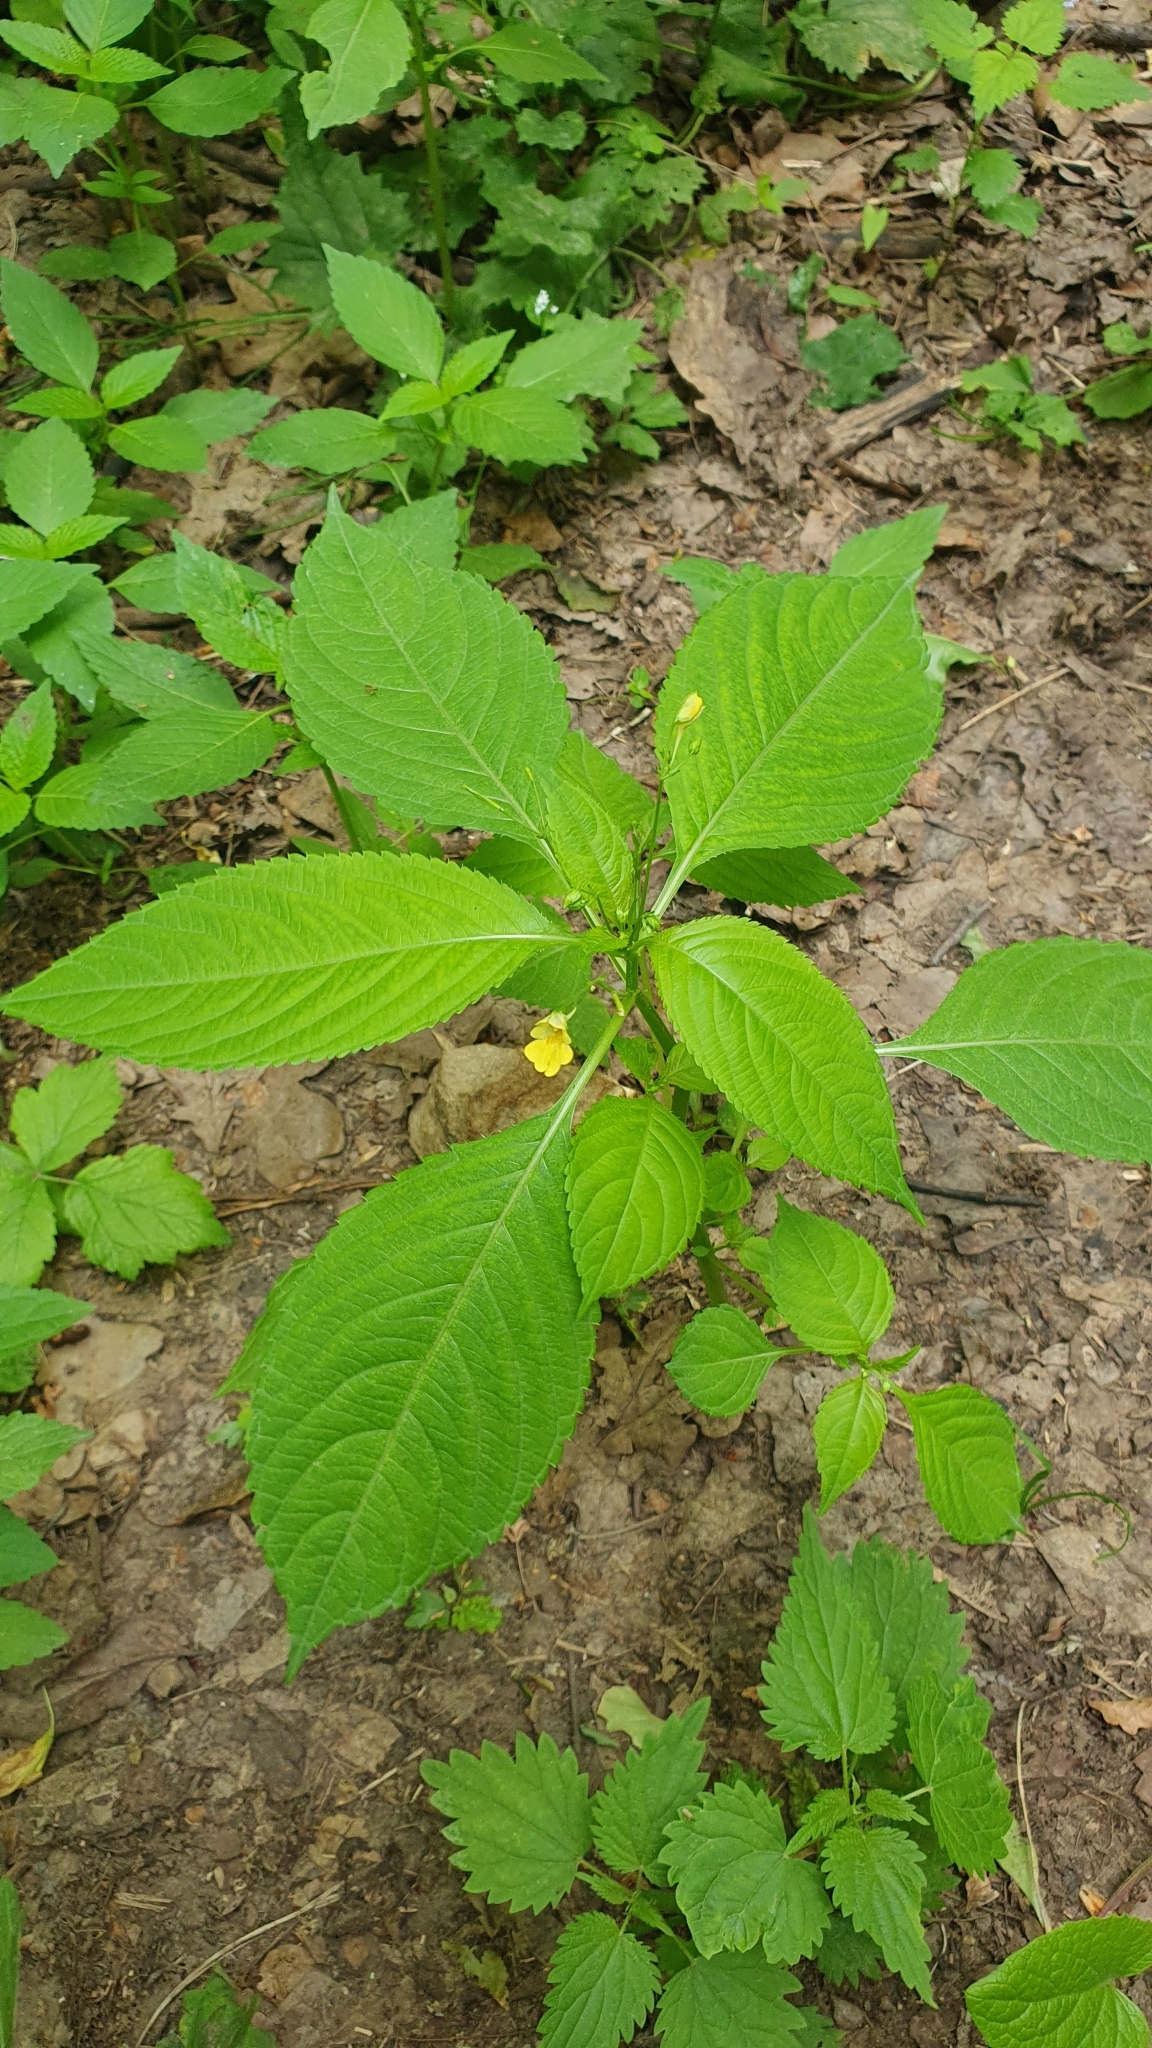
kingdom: Plantae
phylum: Tracheophyta
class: Magnoliopsida
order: Ericales
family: Balsaminaceae
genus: Impatiens
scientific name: Impatiens parviflora
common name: Small balsam
